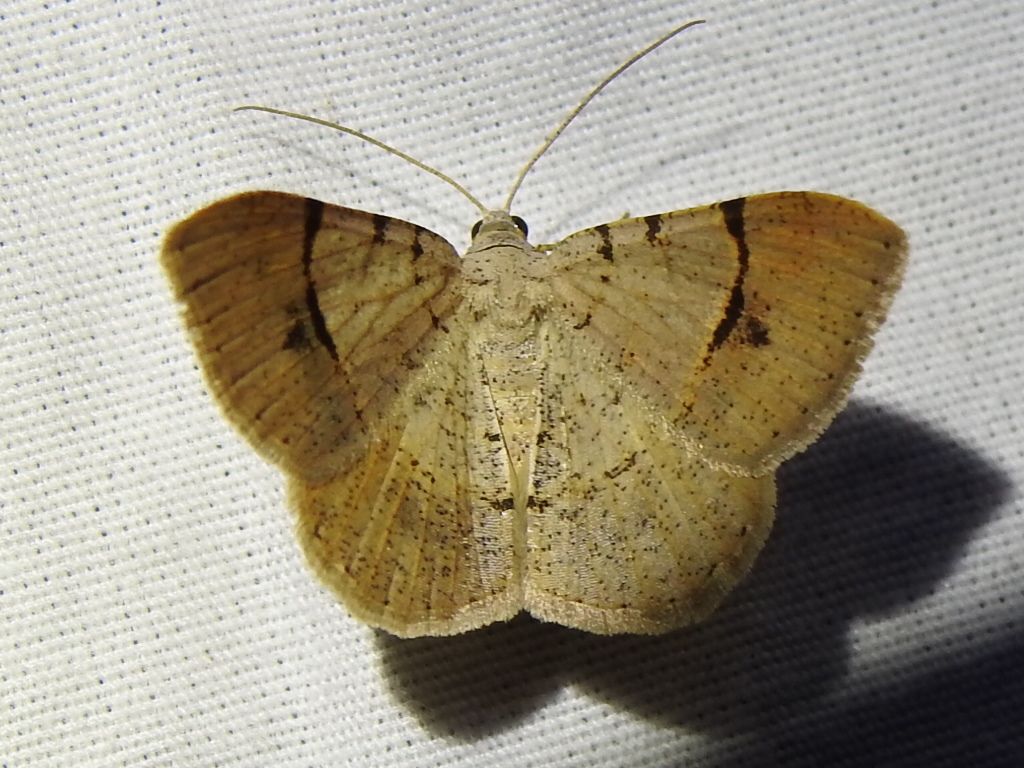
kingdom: Animalia
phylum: Arthropoda
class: Insecta
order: Lepidoptera
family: Geometridae
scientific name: Geometridae
